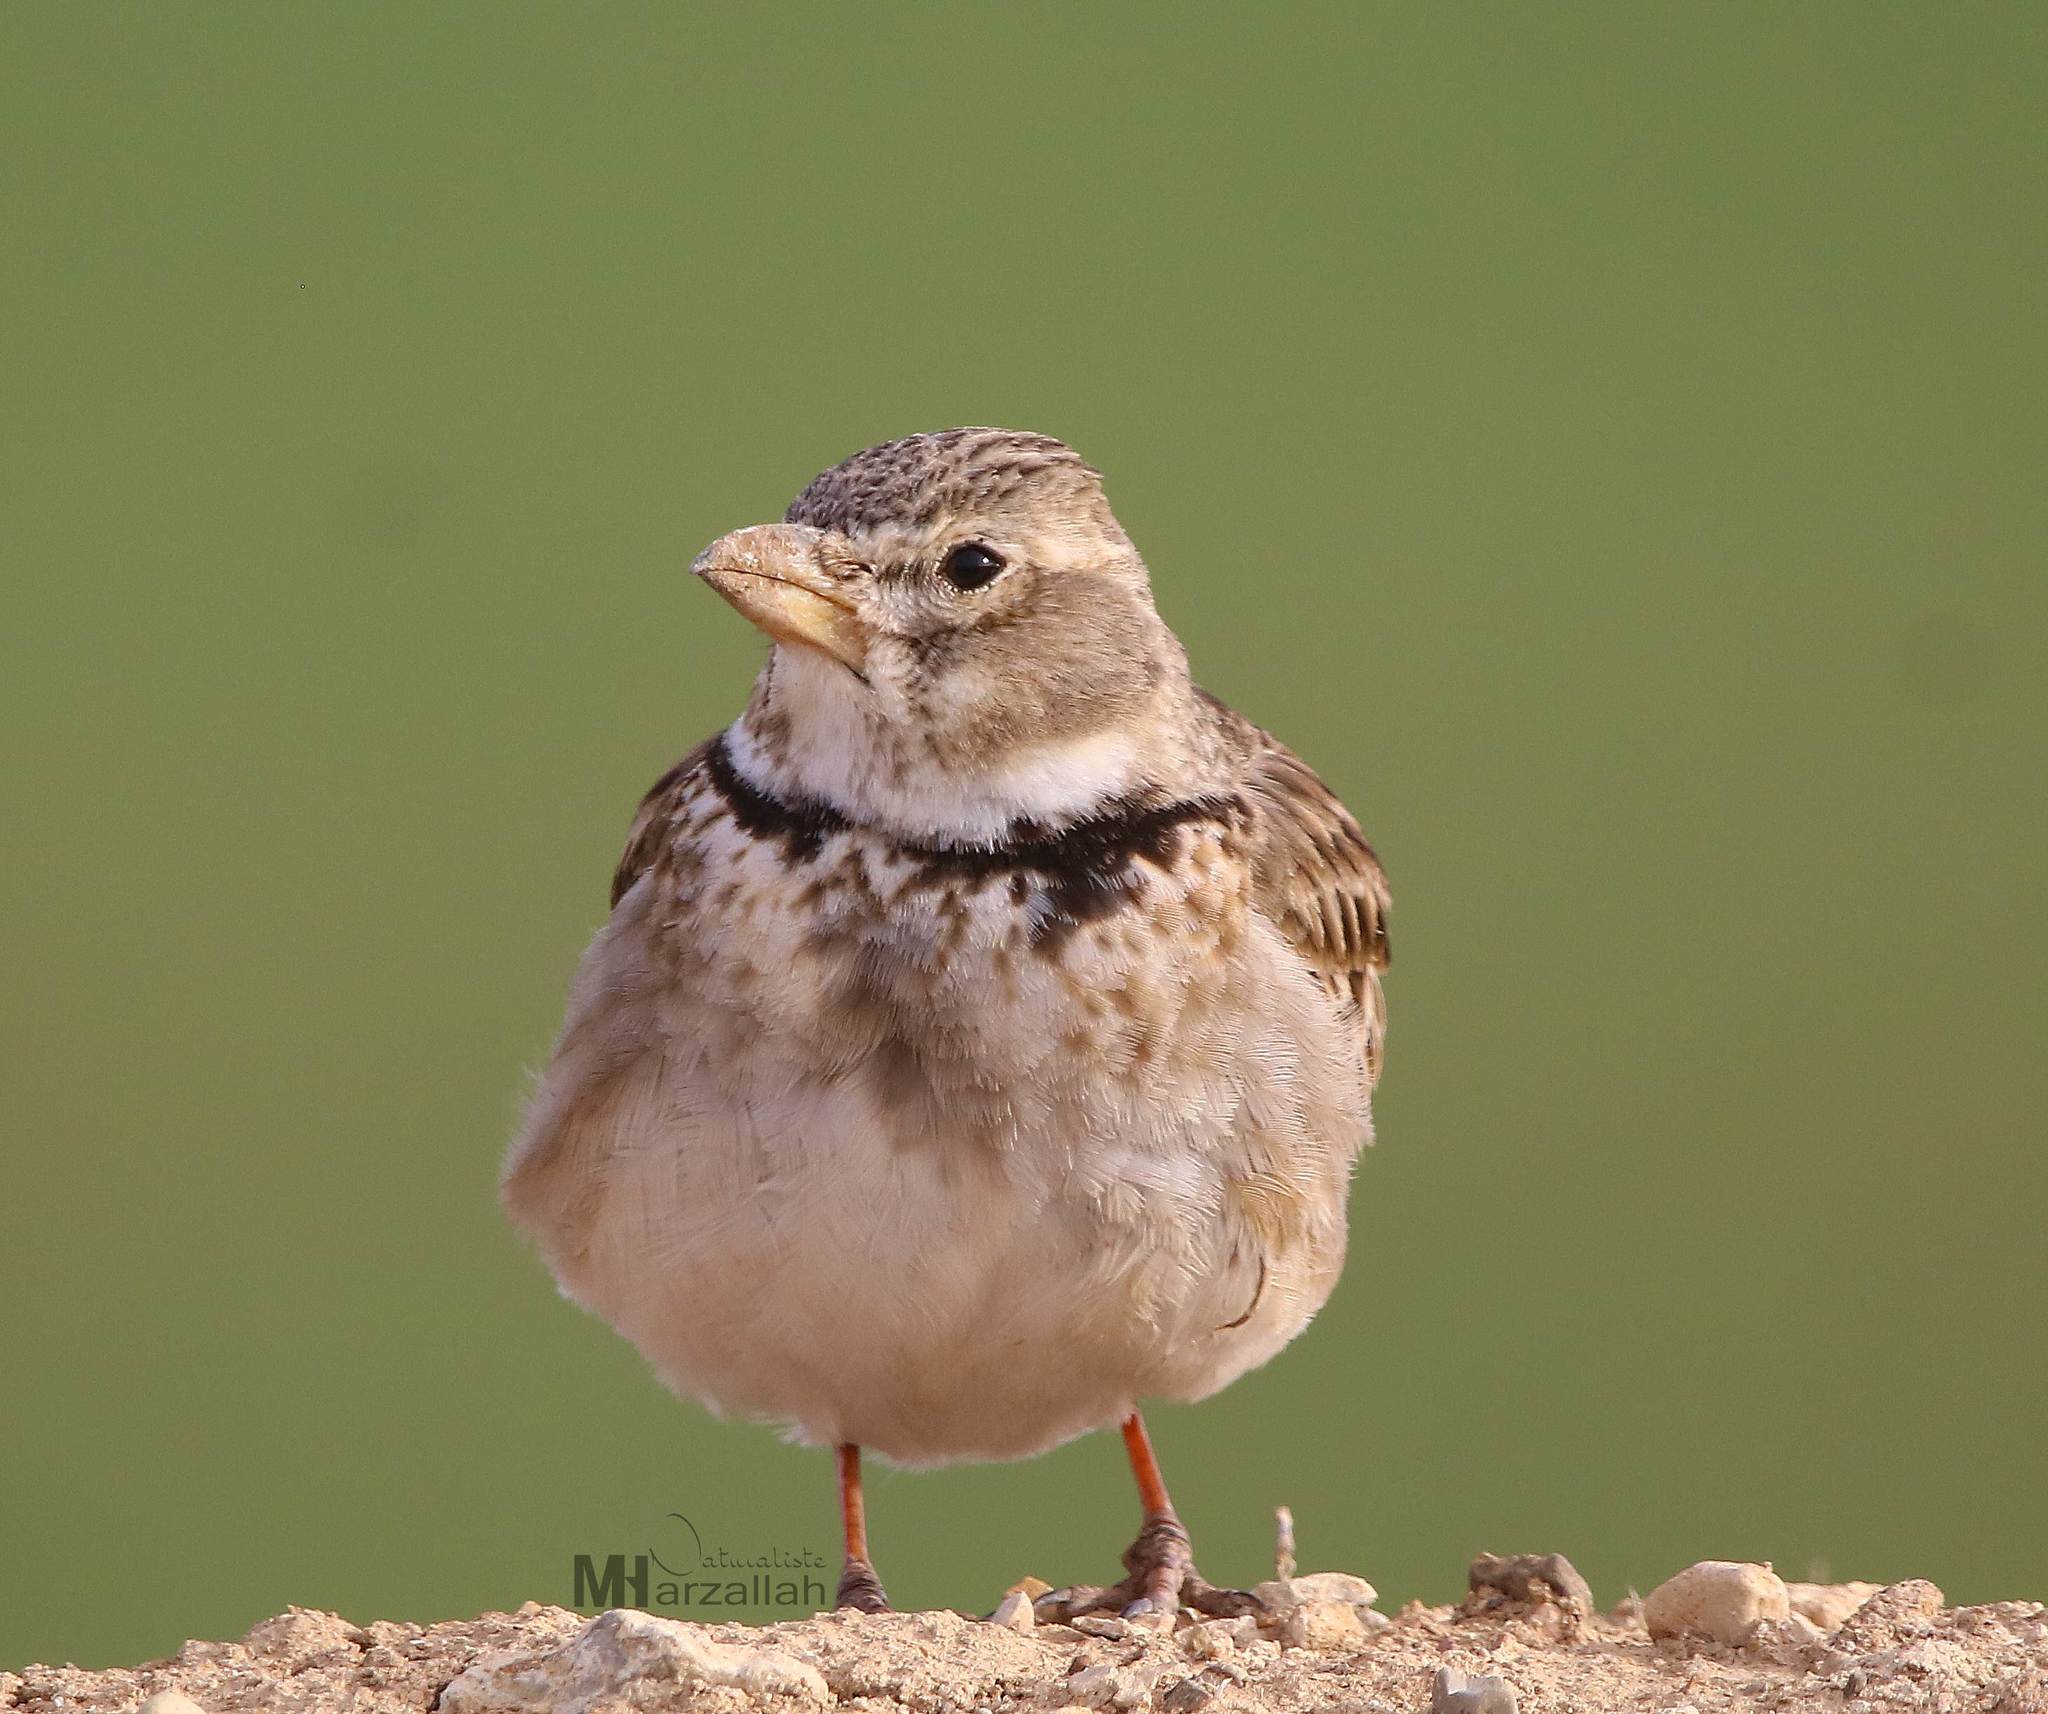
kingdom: Animalia
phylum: Chordata
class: Aves
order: Passeriformes
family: Alaudidae
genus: Melanocorypha
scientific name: Melanocorypha calandra
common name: Calandra lark
